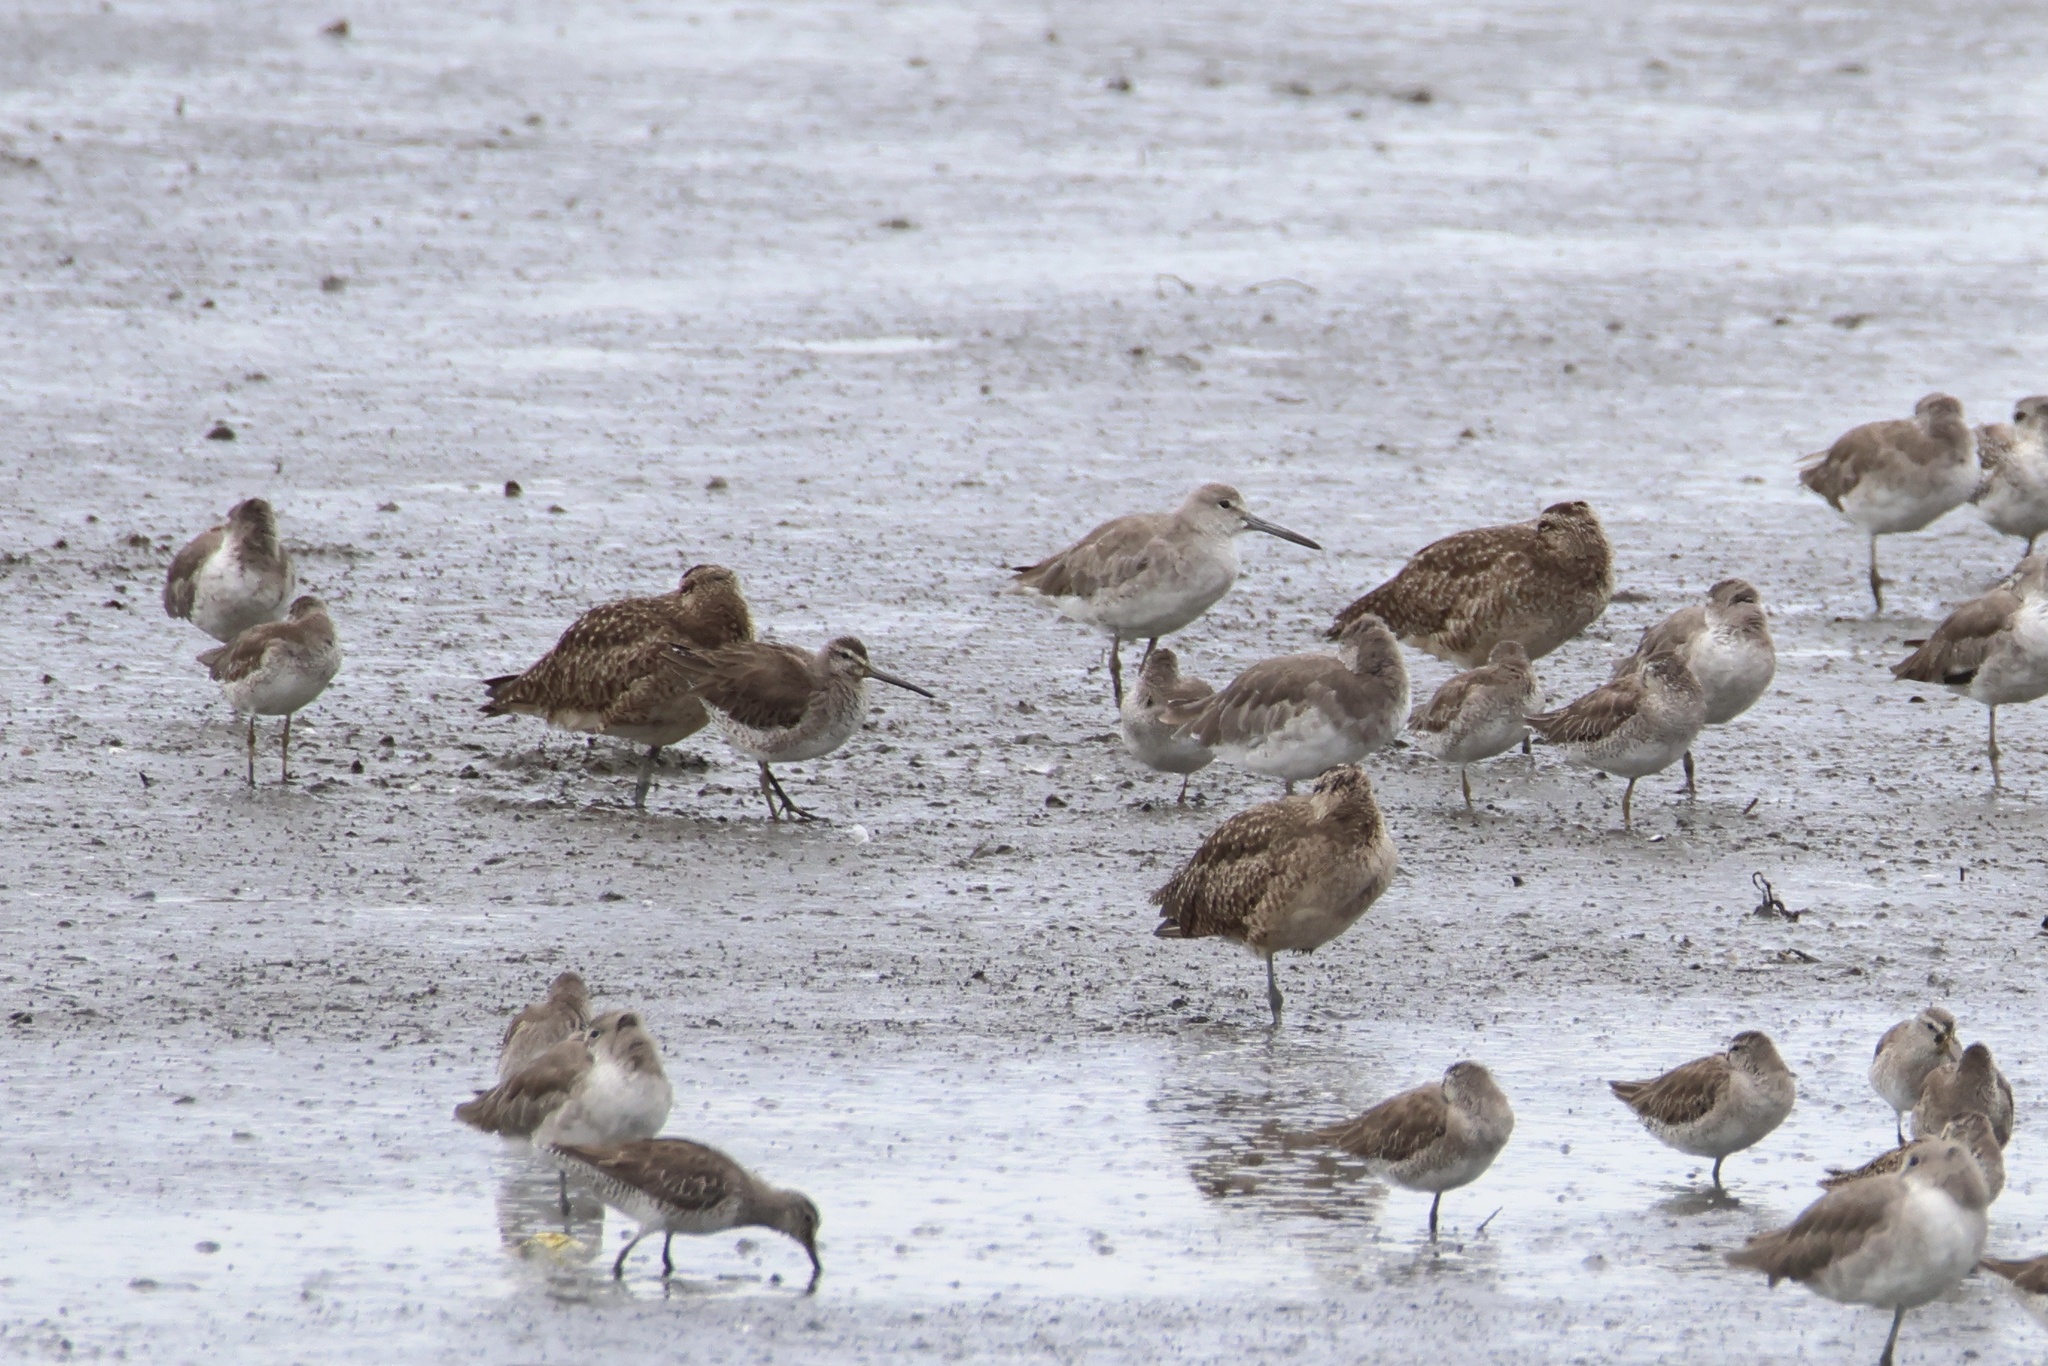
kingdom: Animalia
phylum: Chordata
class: Aves
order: Charadriiformes
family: Scolopacidae
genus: Tringa
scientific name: Tringa semipalmata
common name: Willet
